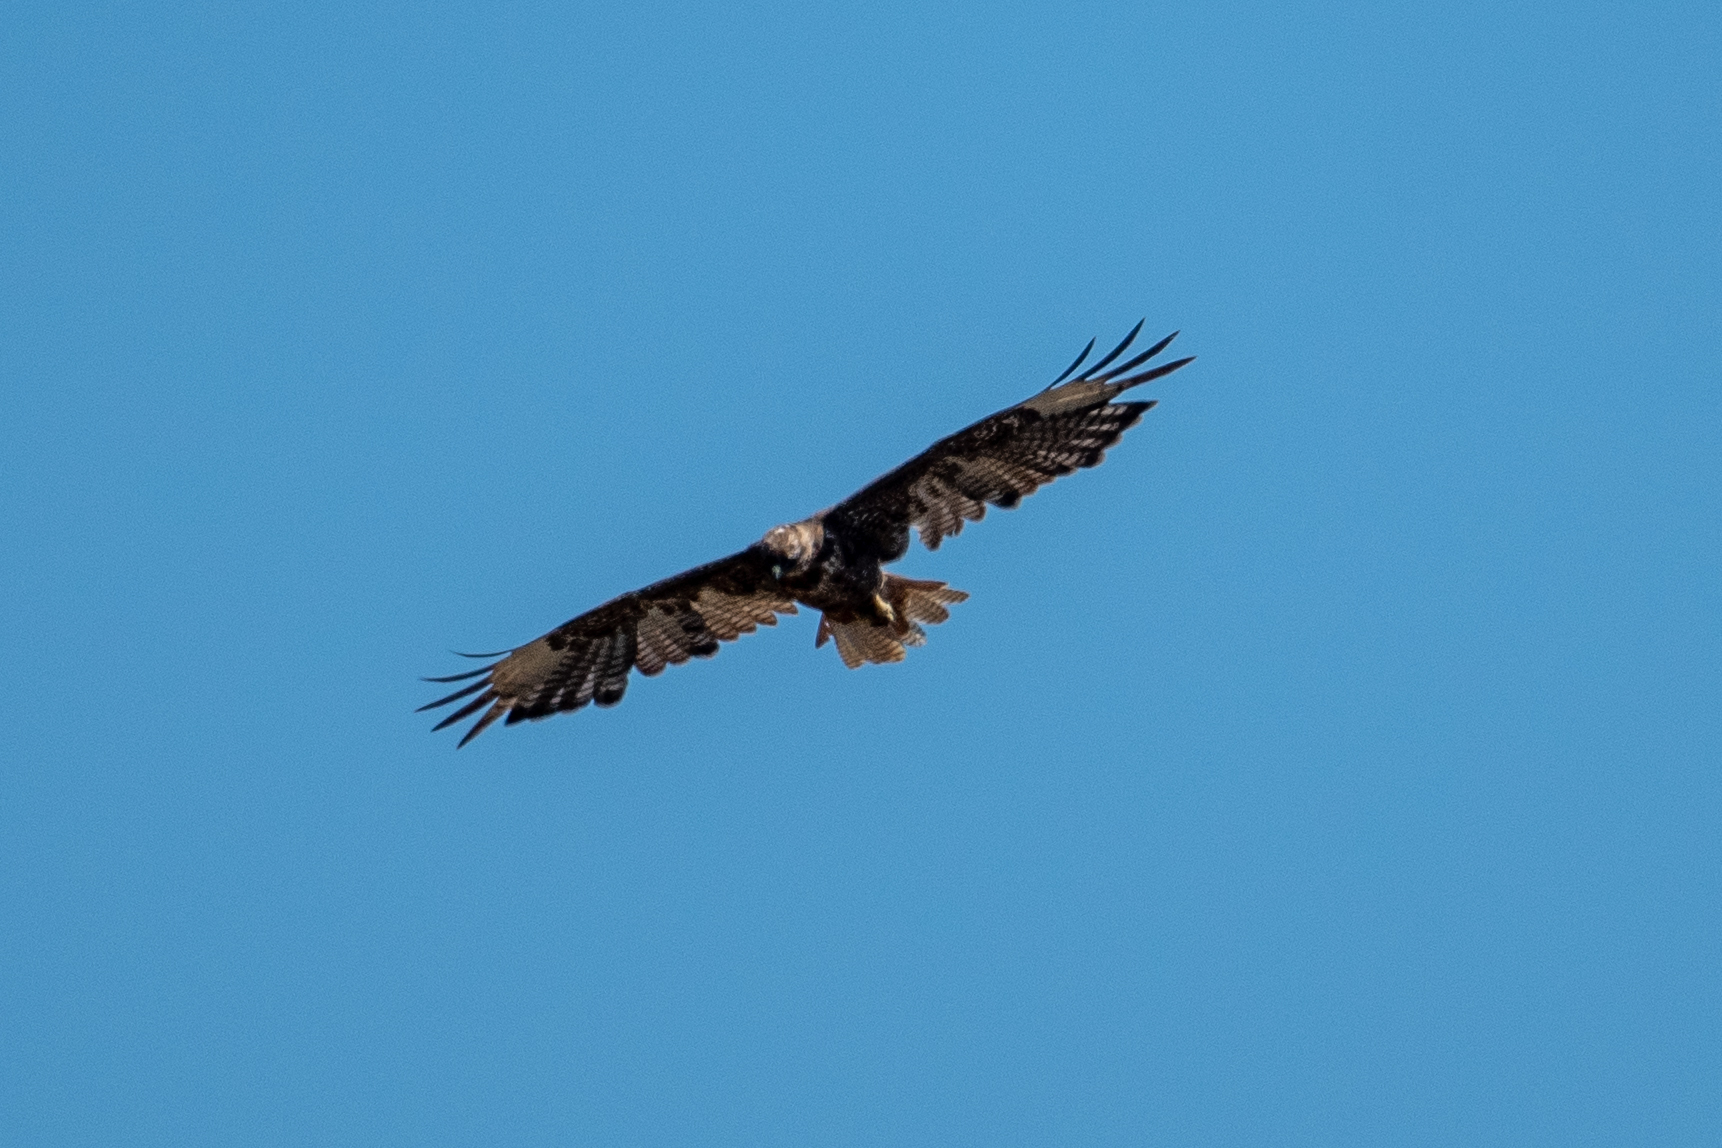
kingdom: Animalia
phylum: Chordata
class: Aves
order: Accipitriformes
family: Accipitridae
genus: Buteo
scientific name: Buteo jamaicensis
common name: Red-tailed hawk
